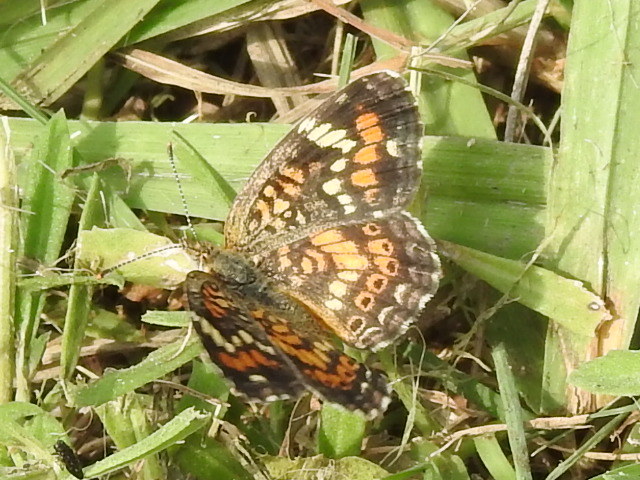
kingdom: Animalia
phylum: Arthropoda
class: Insecta
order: Lepidoptera
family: Nymphalidae
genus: Phyciodes
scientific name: Phyciodes phaon
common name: Phaon crescent
